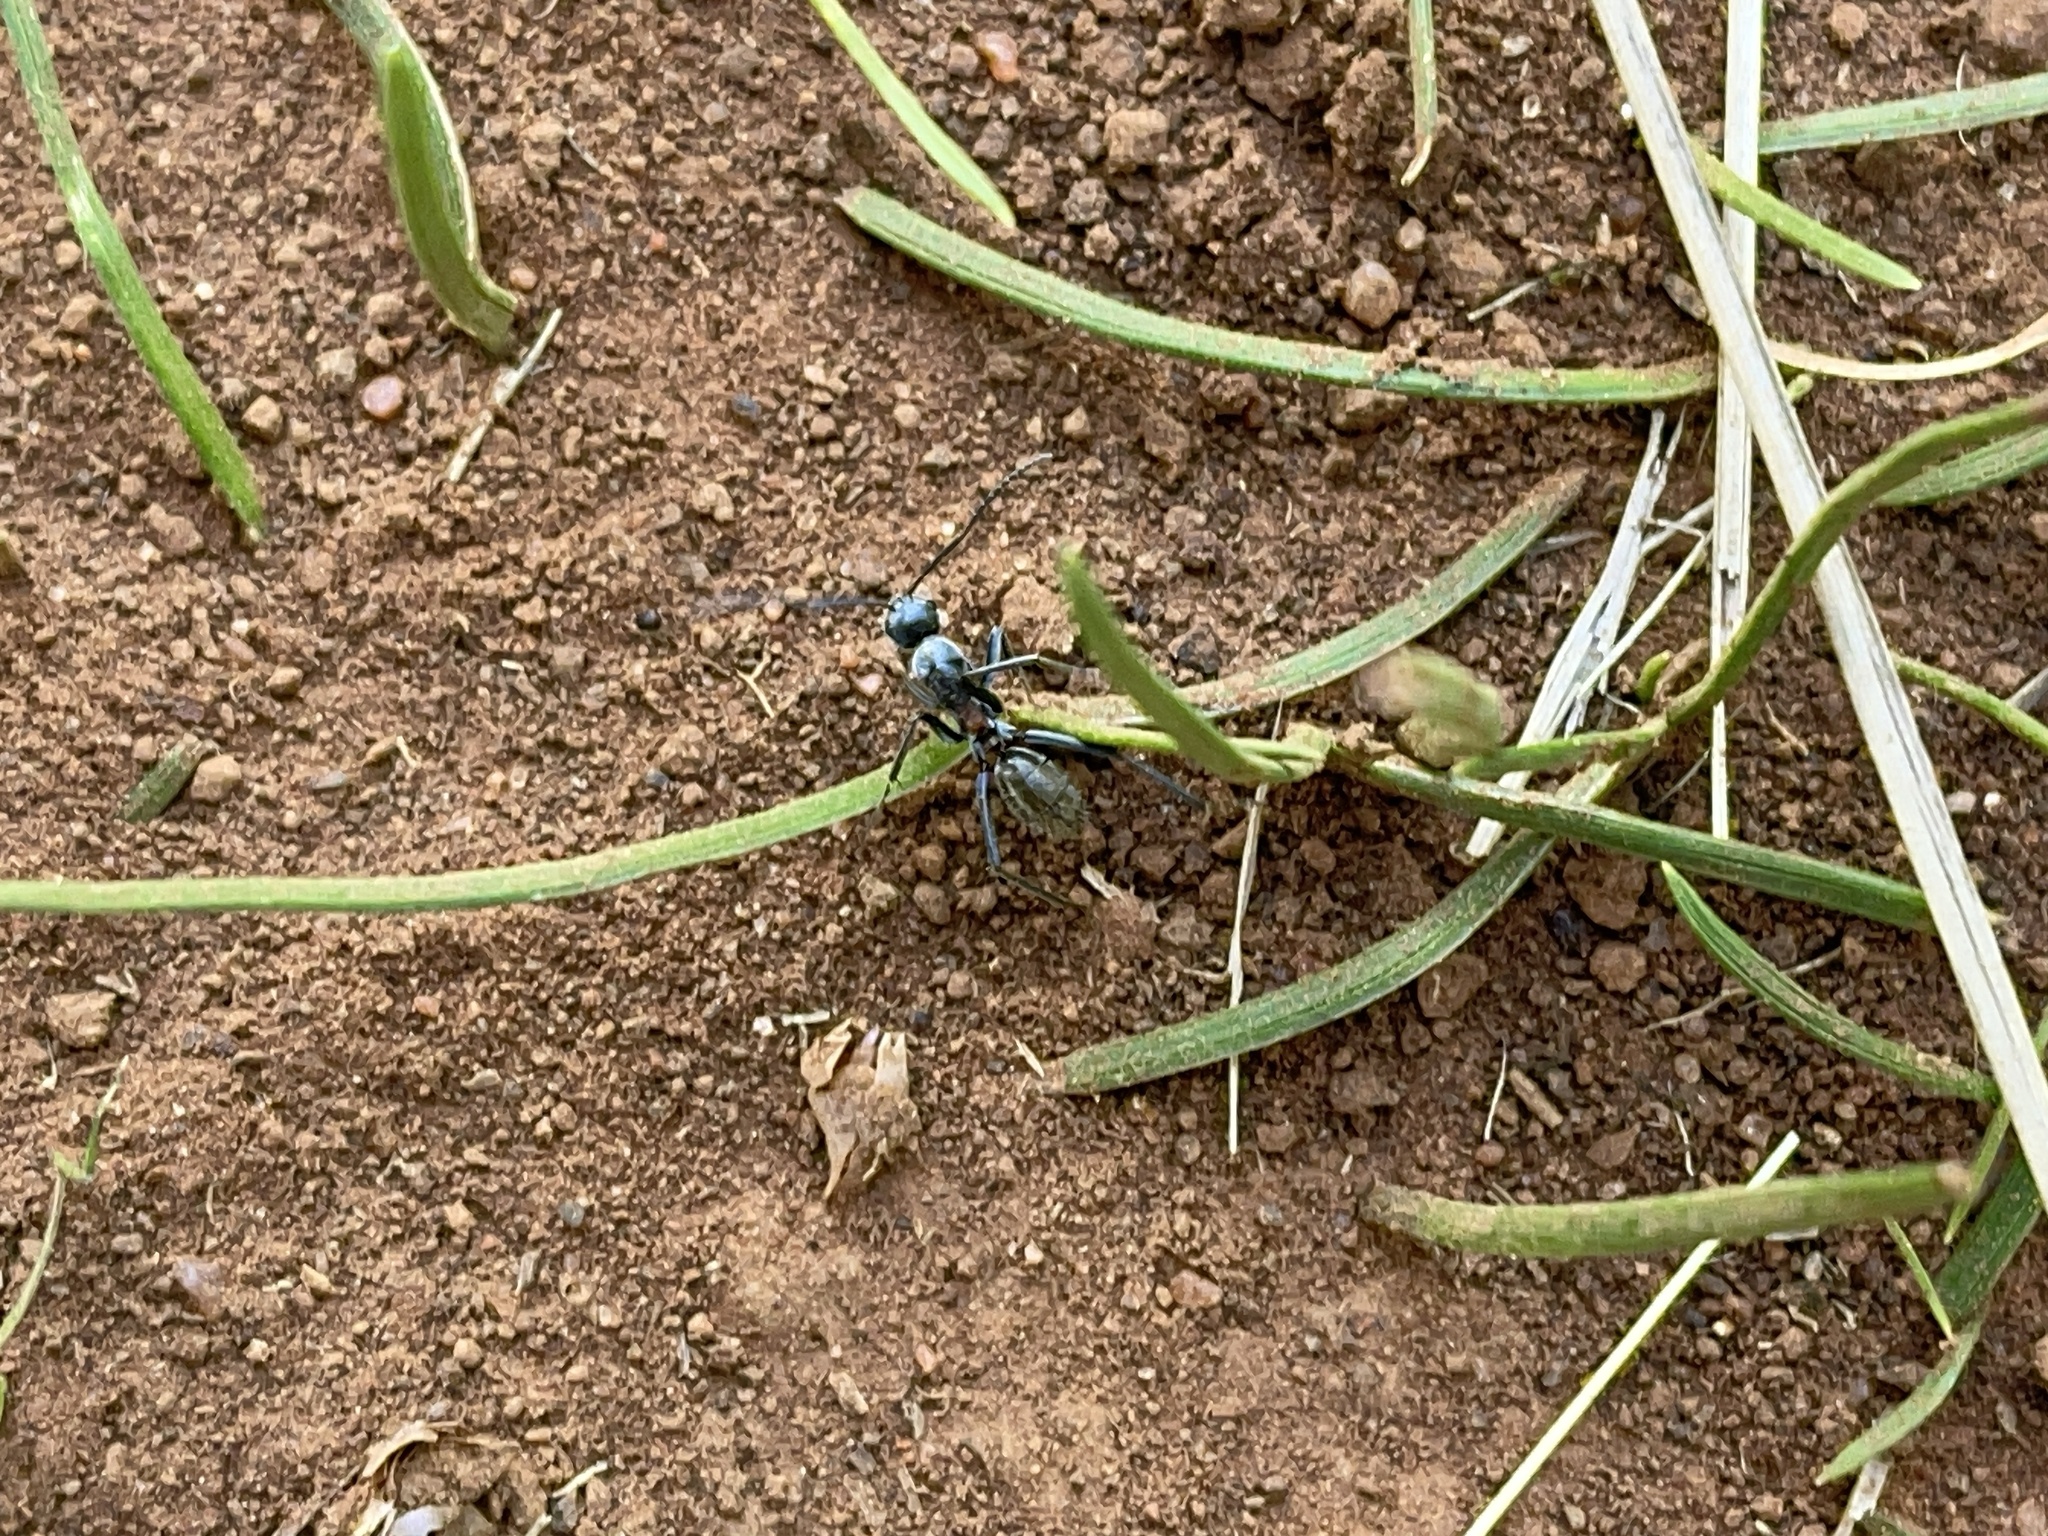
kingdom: Animalia
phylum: Arthropoda
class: Insecta
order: Hymenoptera
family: Formicidae
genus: Camponotus
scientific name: Camponotus fergusoni
